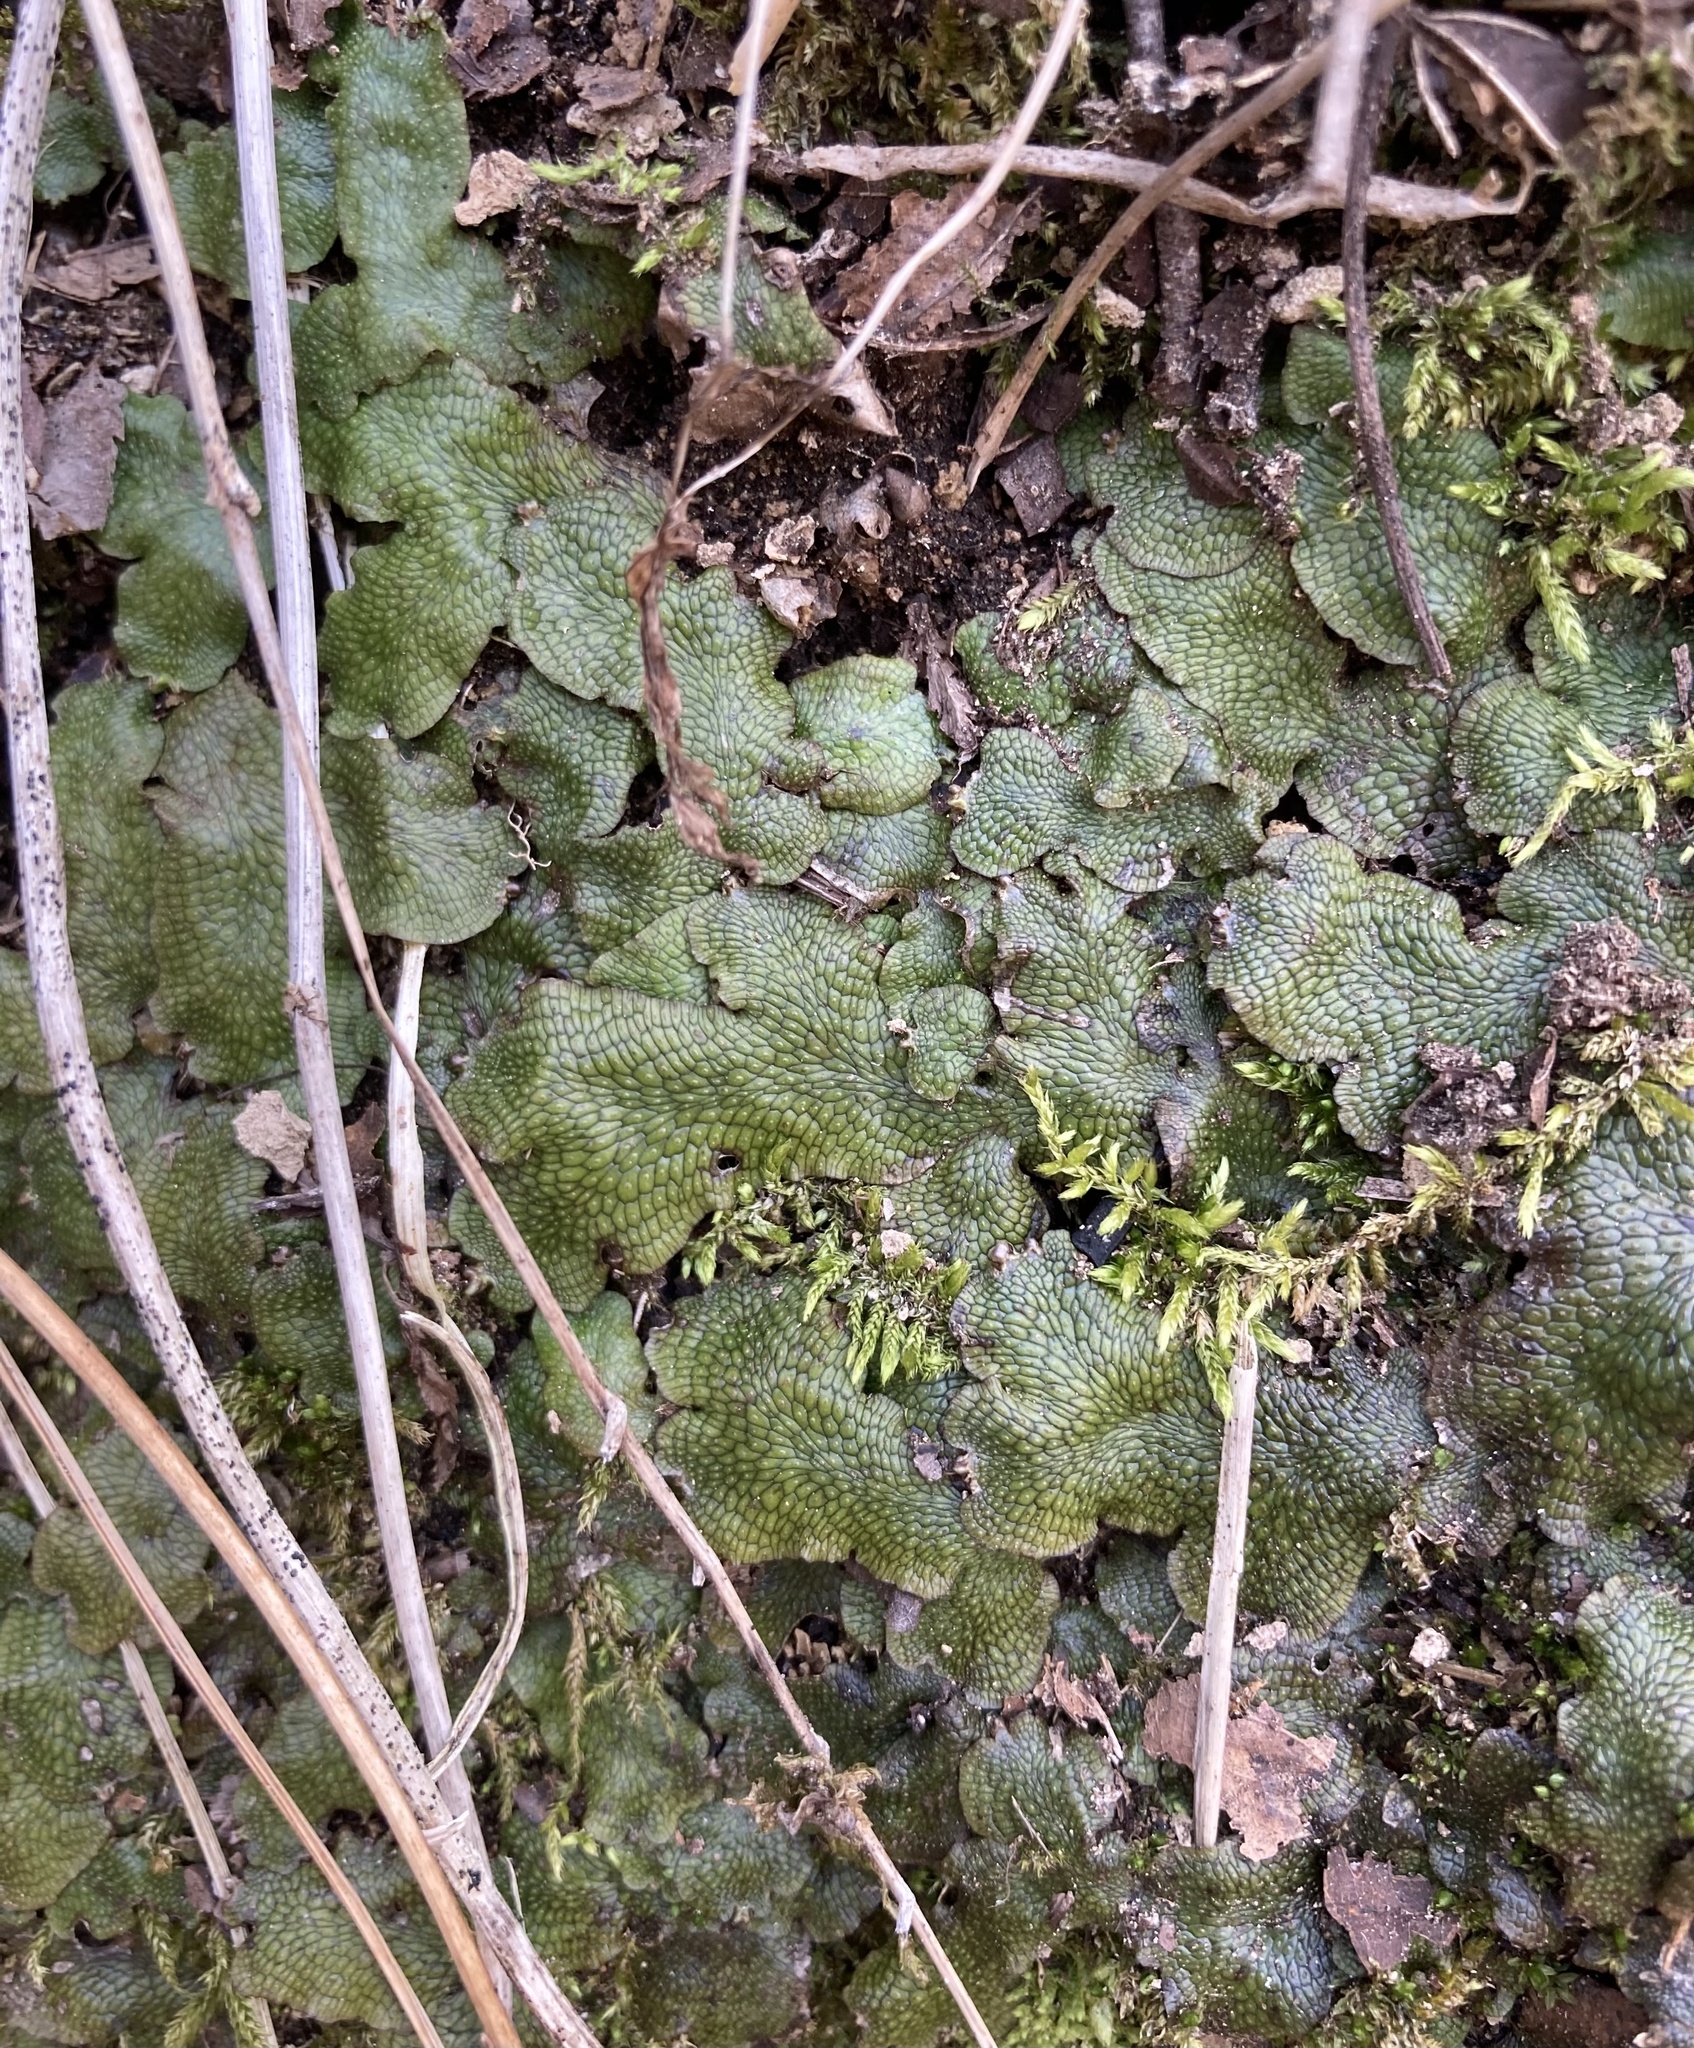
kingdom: Plantae
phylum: Marchantiophyta
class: Marchantiopsida
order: Marchantiales
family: Conocephalaceae
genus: Conocephalum
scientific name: Conocephalum salebrosum
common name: Cat-tongue liverwort
